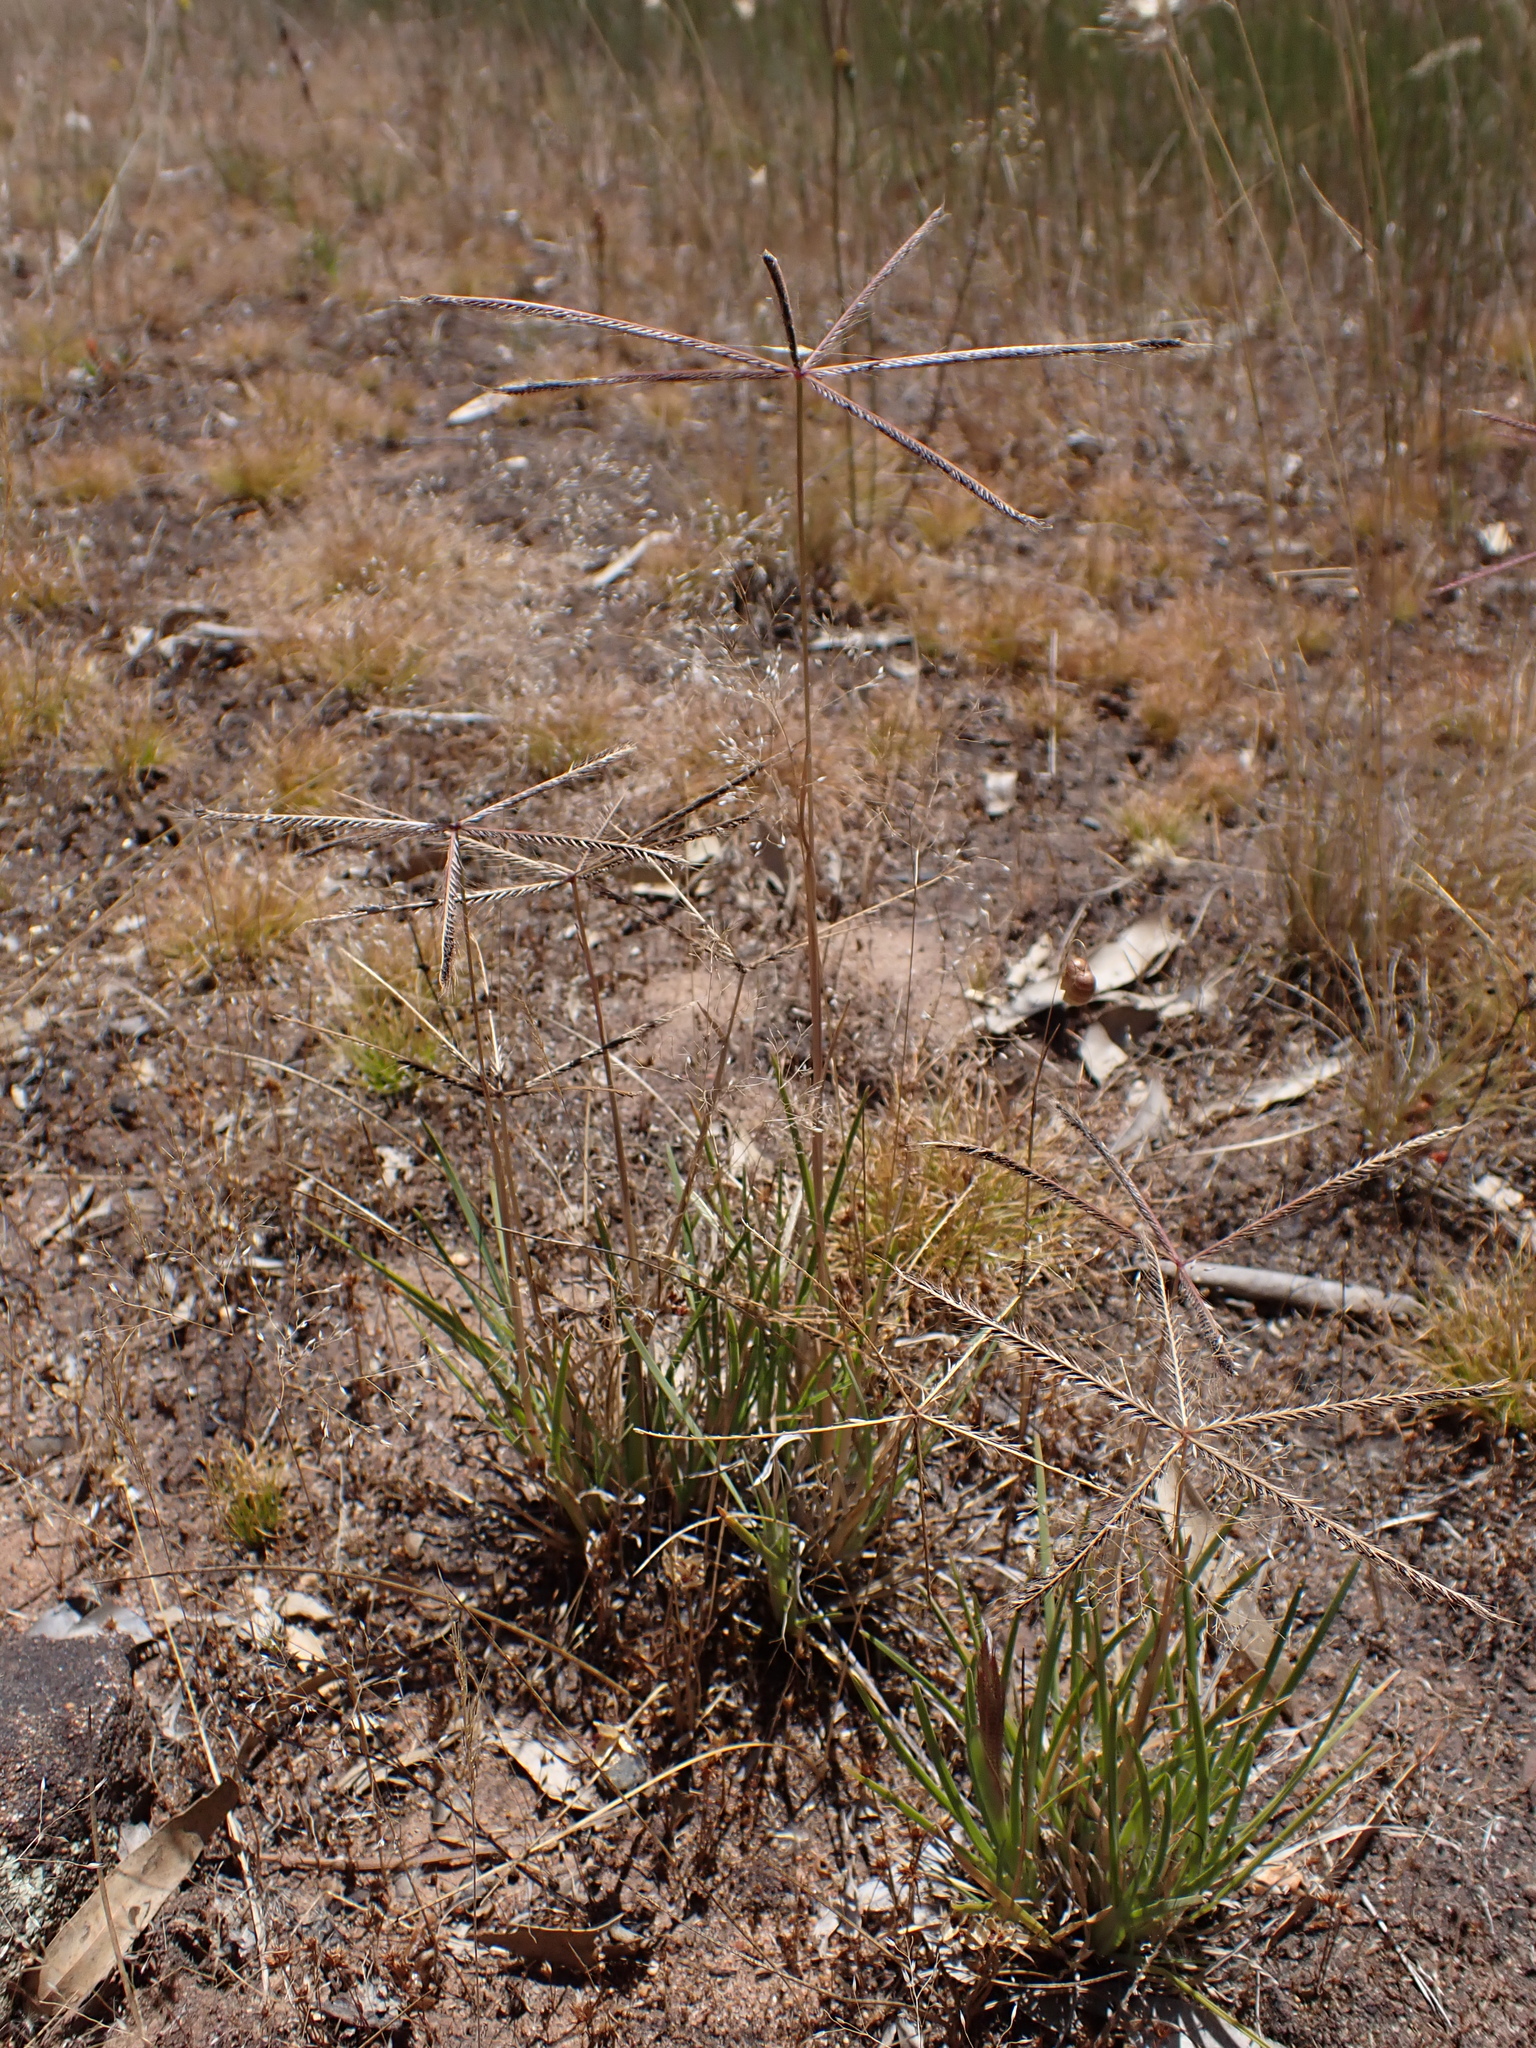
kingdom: Plantae
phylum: Tracheophyta
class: Liliopsida
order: Poales
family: Poaceae
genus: Chloris
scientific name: Chloris truncata
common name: Windmill-grass
